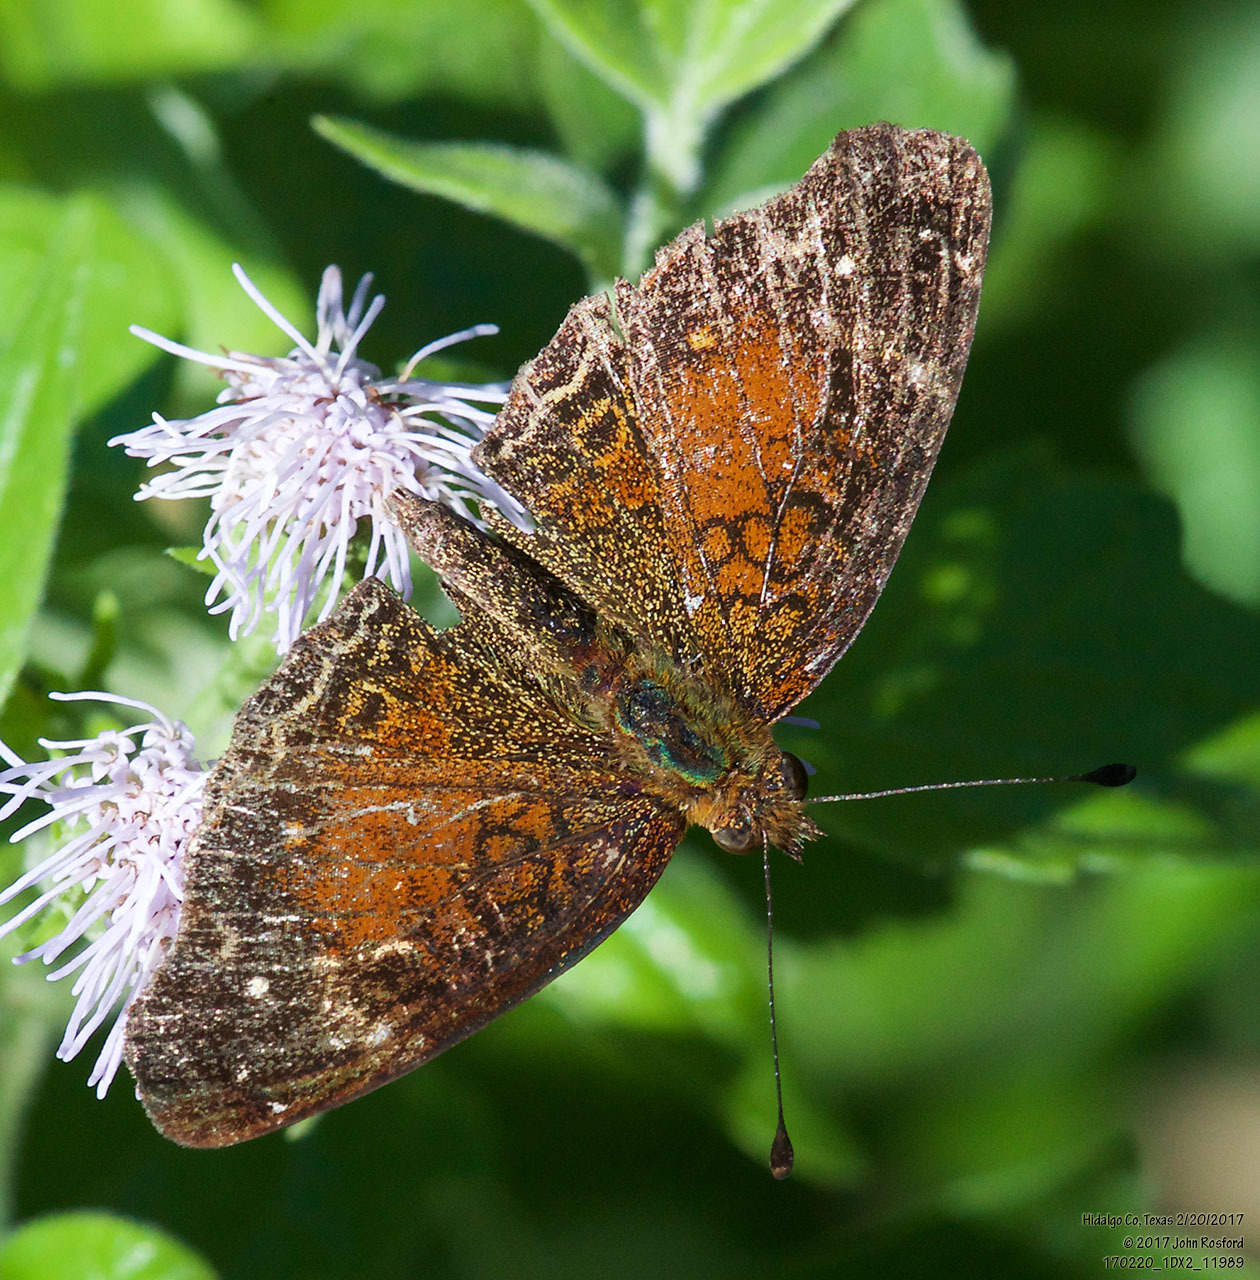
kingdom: Animalia
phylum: Arthropoda
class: Insecta
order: Lepidoptera
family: Nymphalidae
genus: Anthanassa
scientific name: Anthanassa argentea
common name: Chestnut crescent
